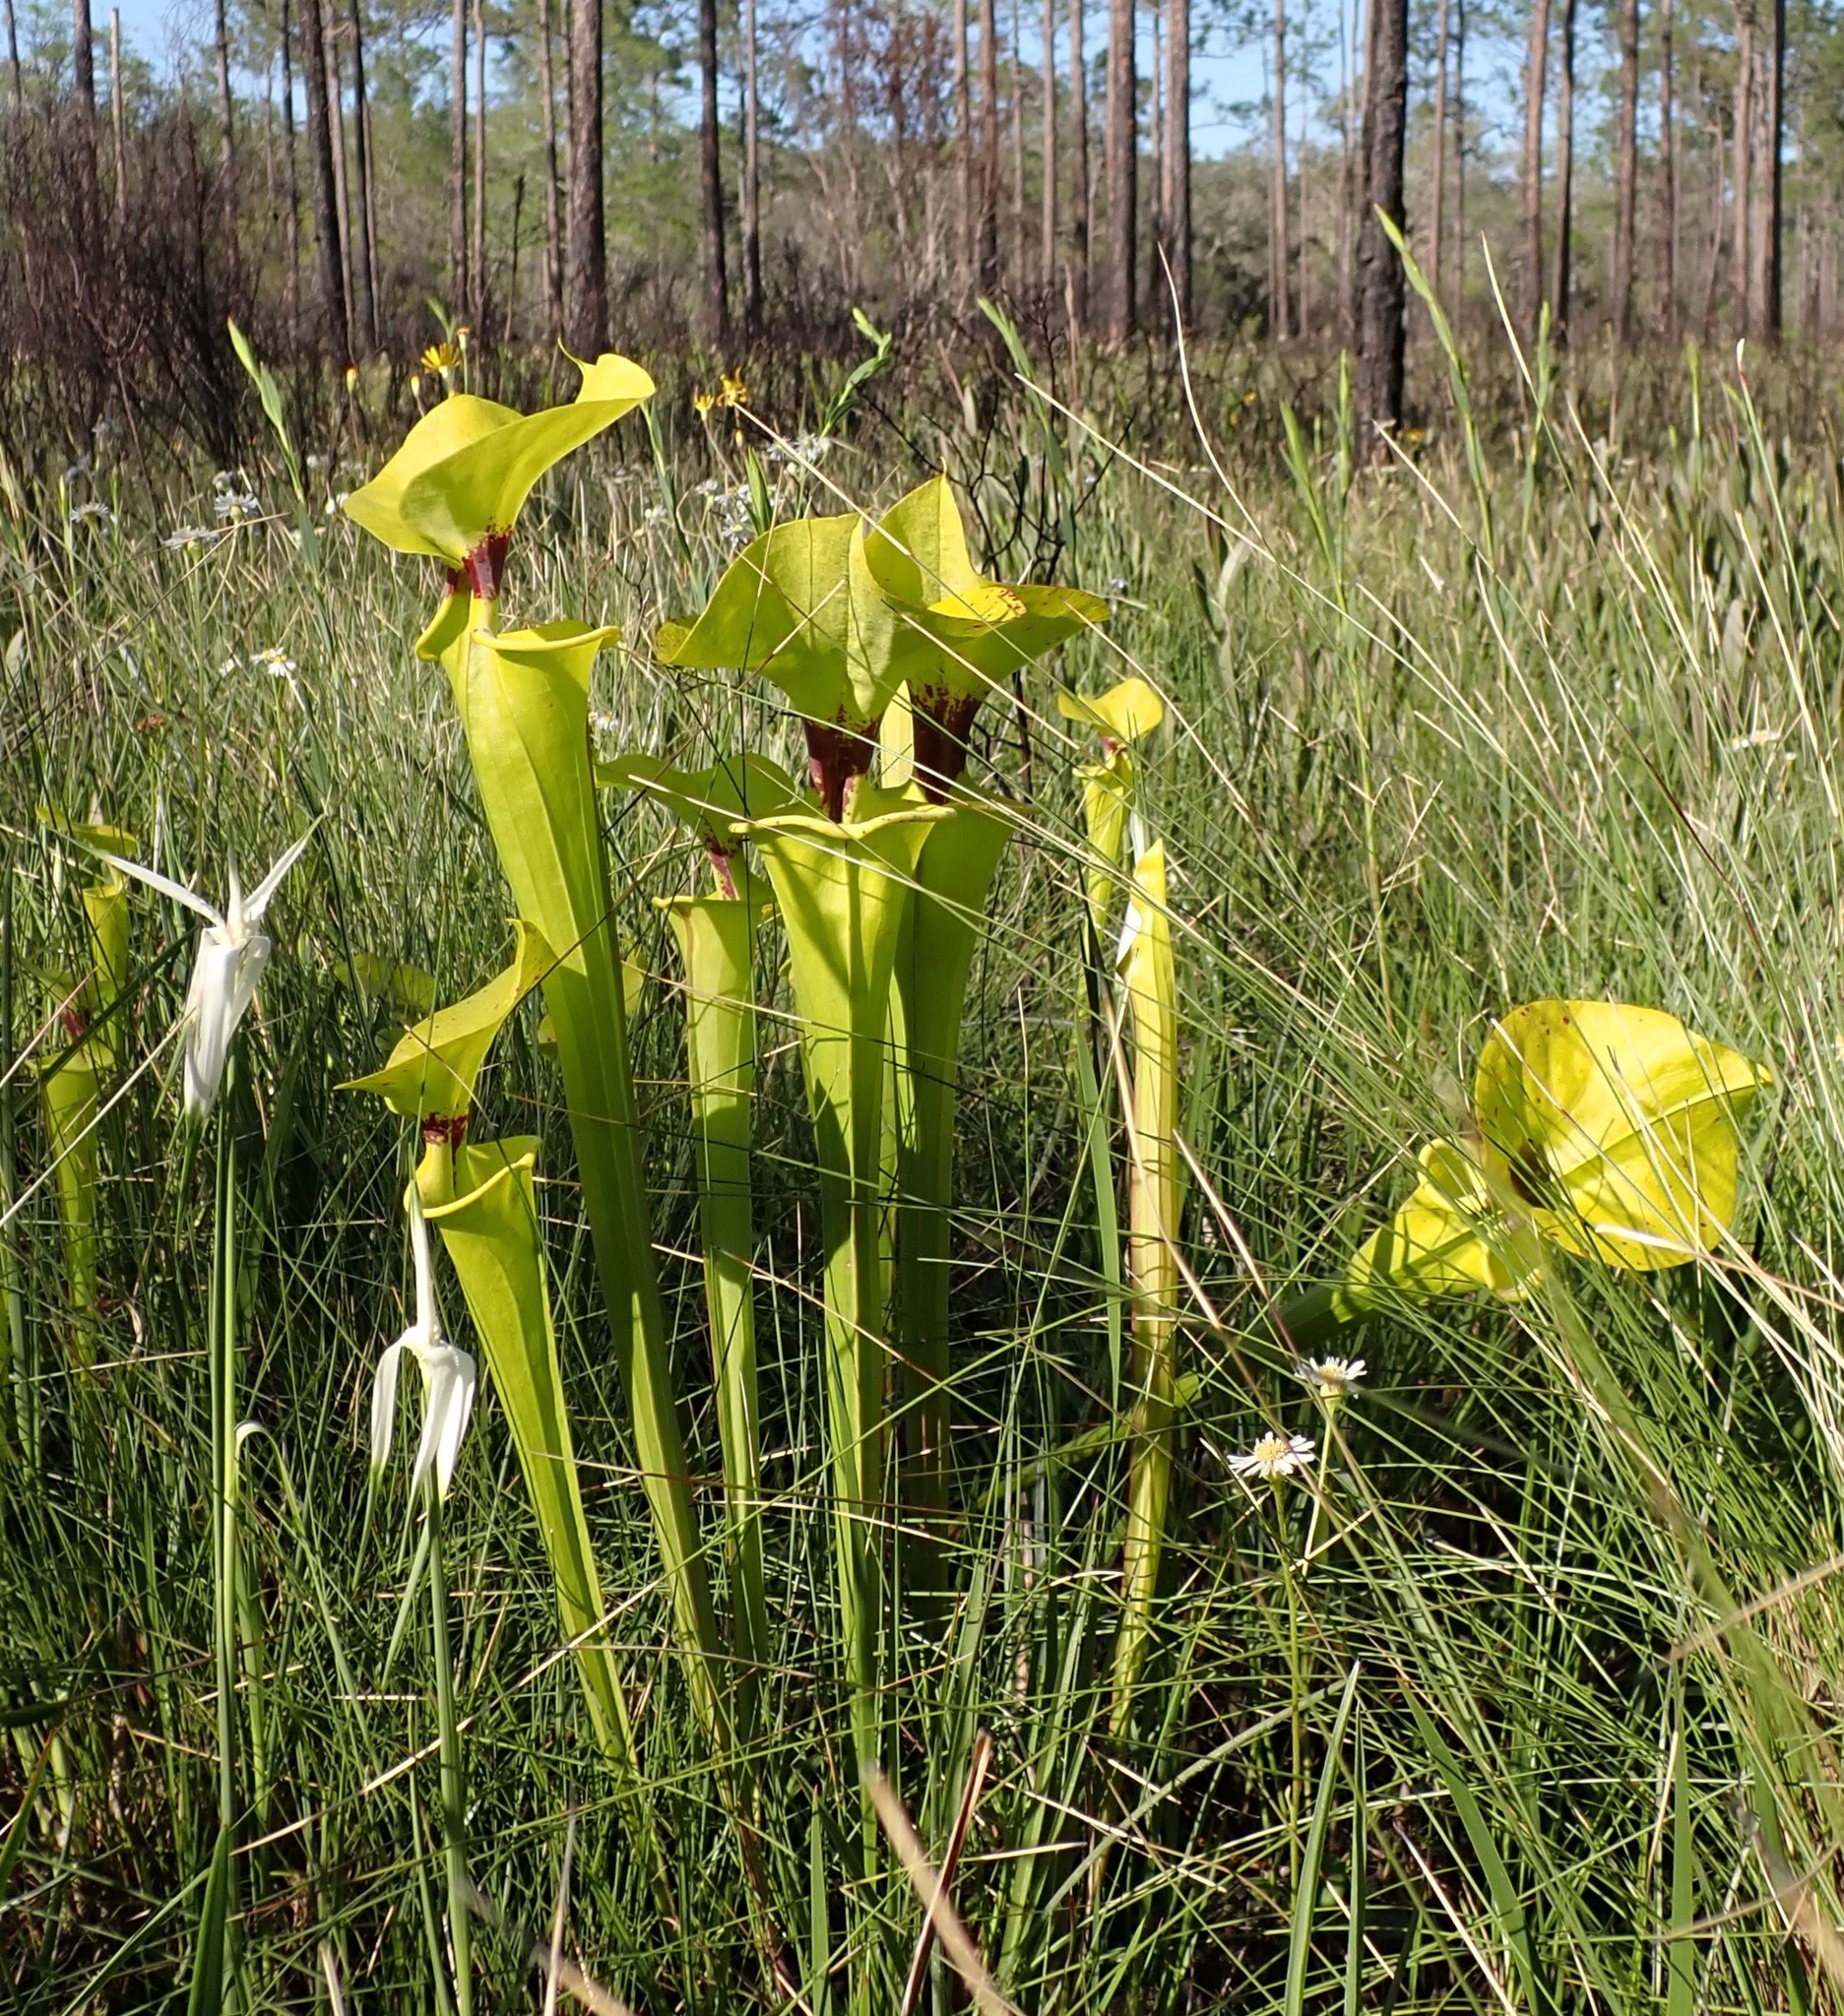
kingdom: Plantae
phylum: Tracheophyta
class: Magnoliopsida
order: Ericales
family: Sarraceniaceae
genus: Sarracenia
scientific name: Sarracenia flava
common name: Trumpets
